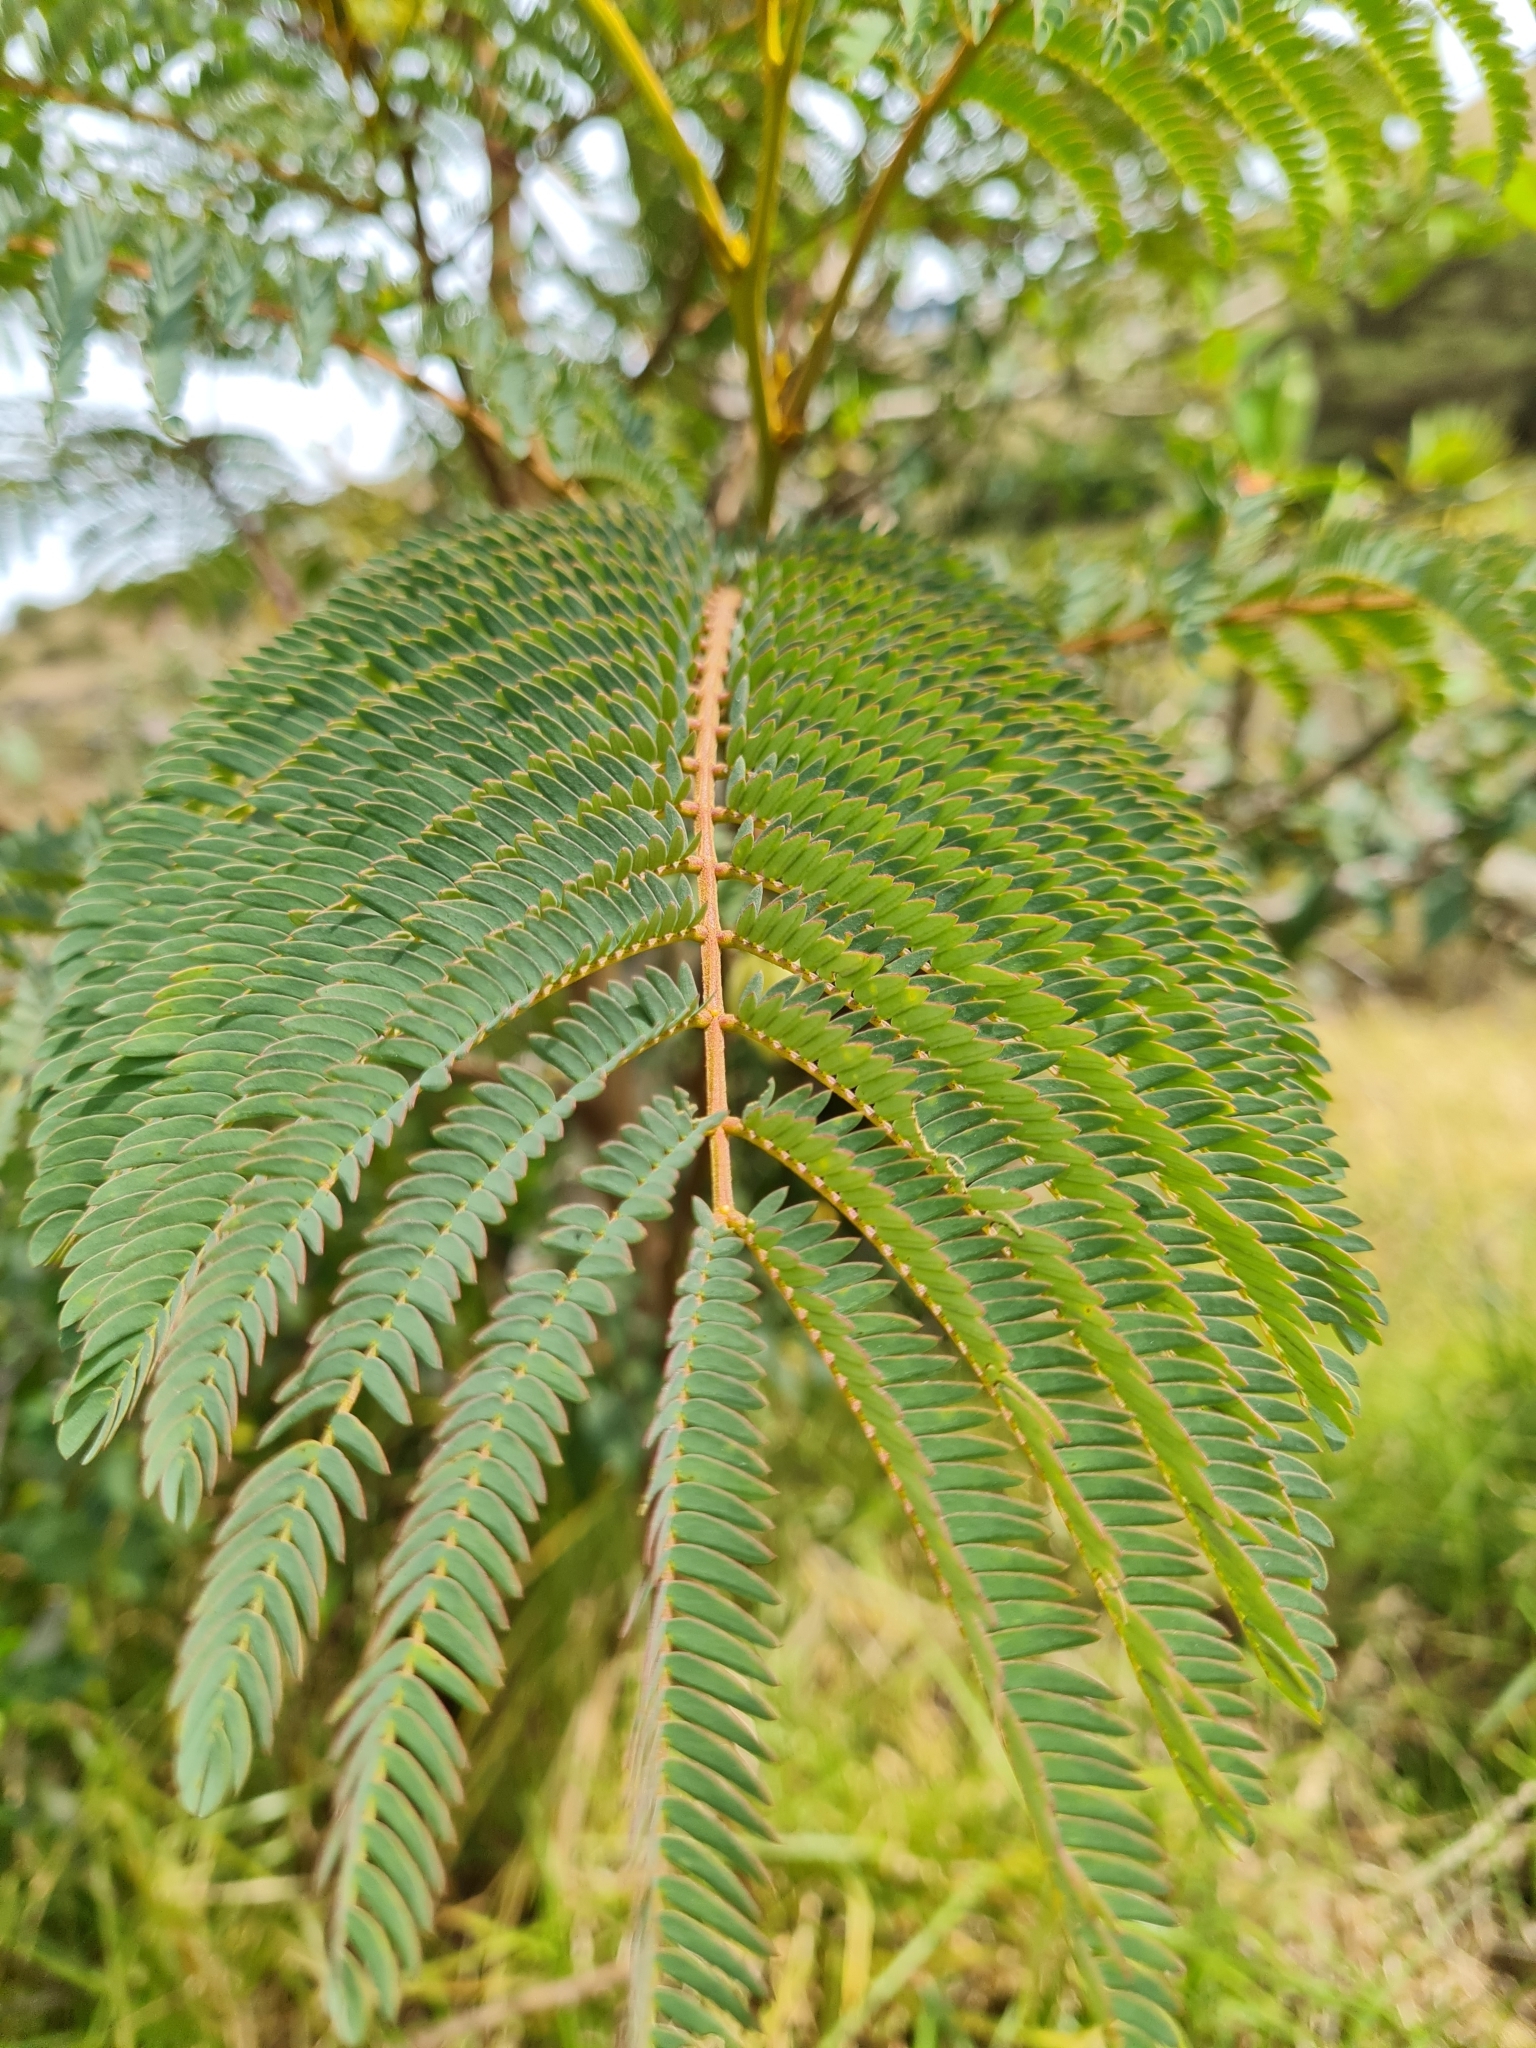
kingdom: Plantae
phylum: Tracheophyta
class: Magnoliopsida
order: Fabales
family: Fabaceae
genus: Paraserianthes
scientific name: Paraserianthes lophantha
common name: Plume albizia
